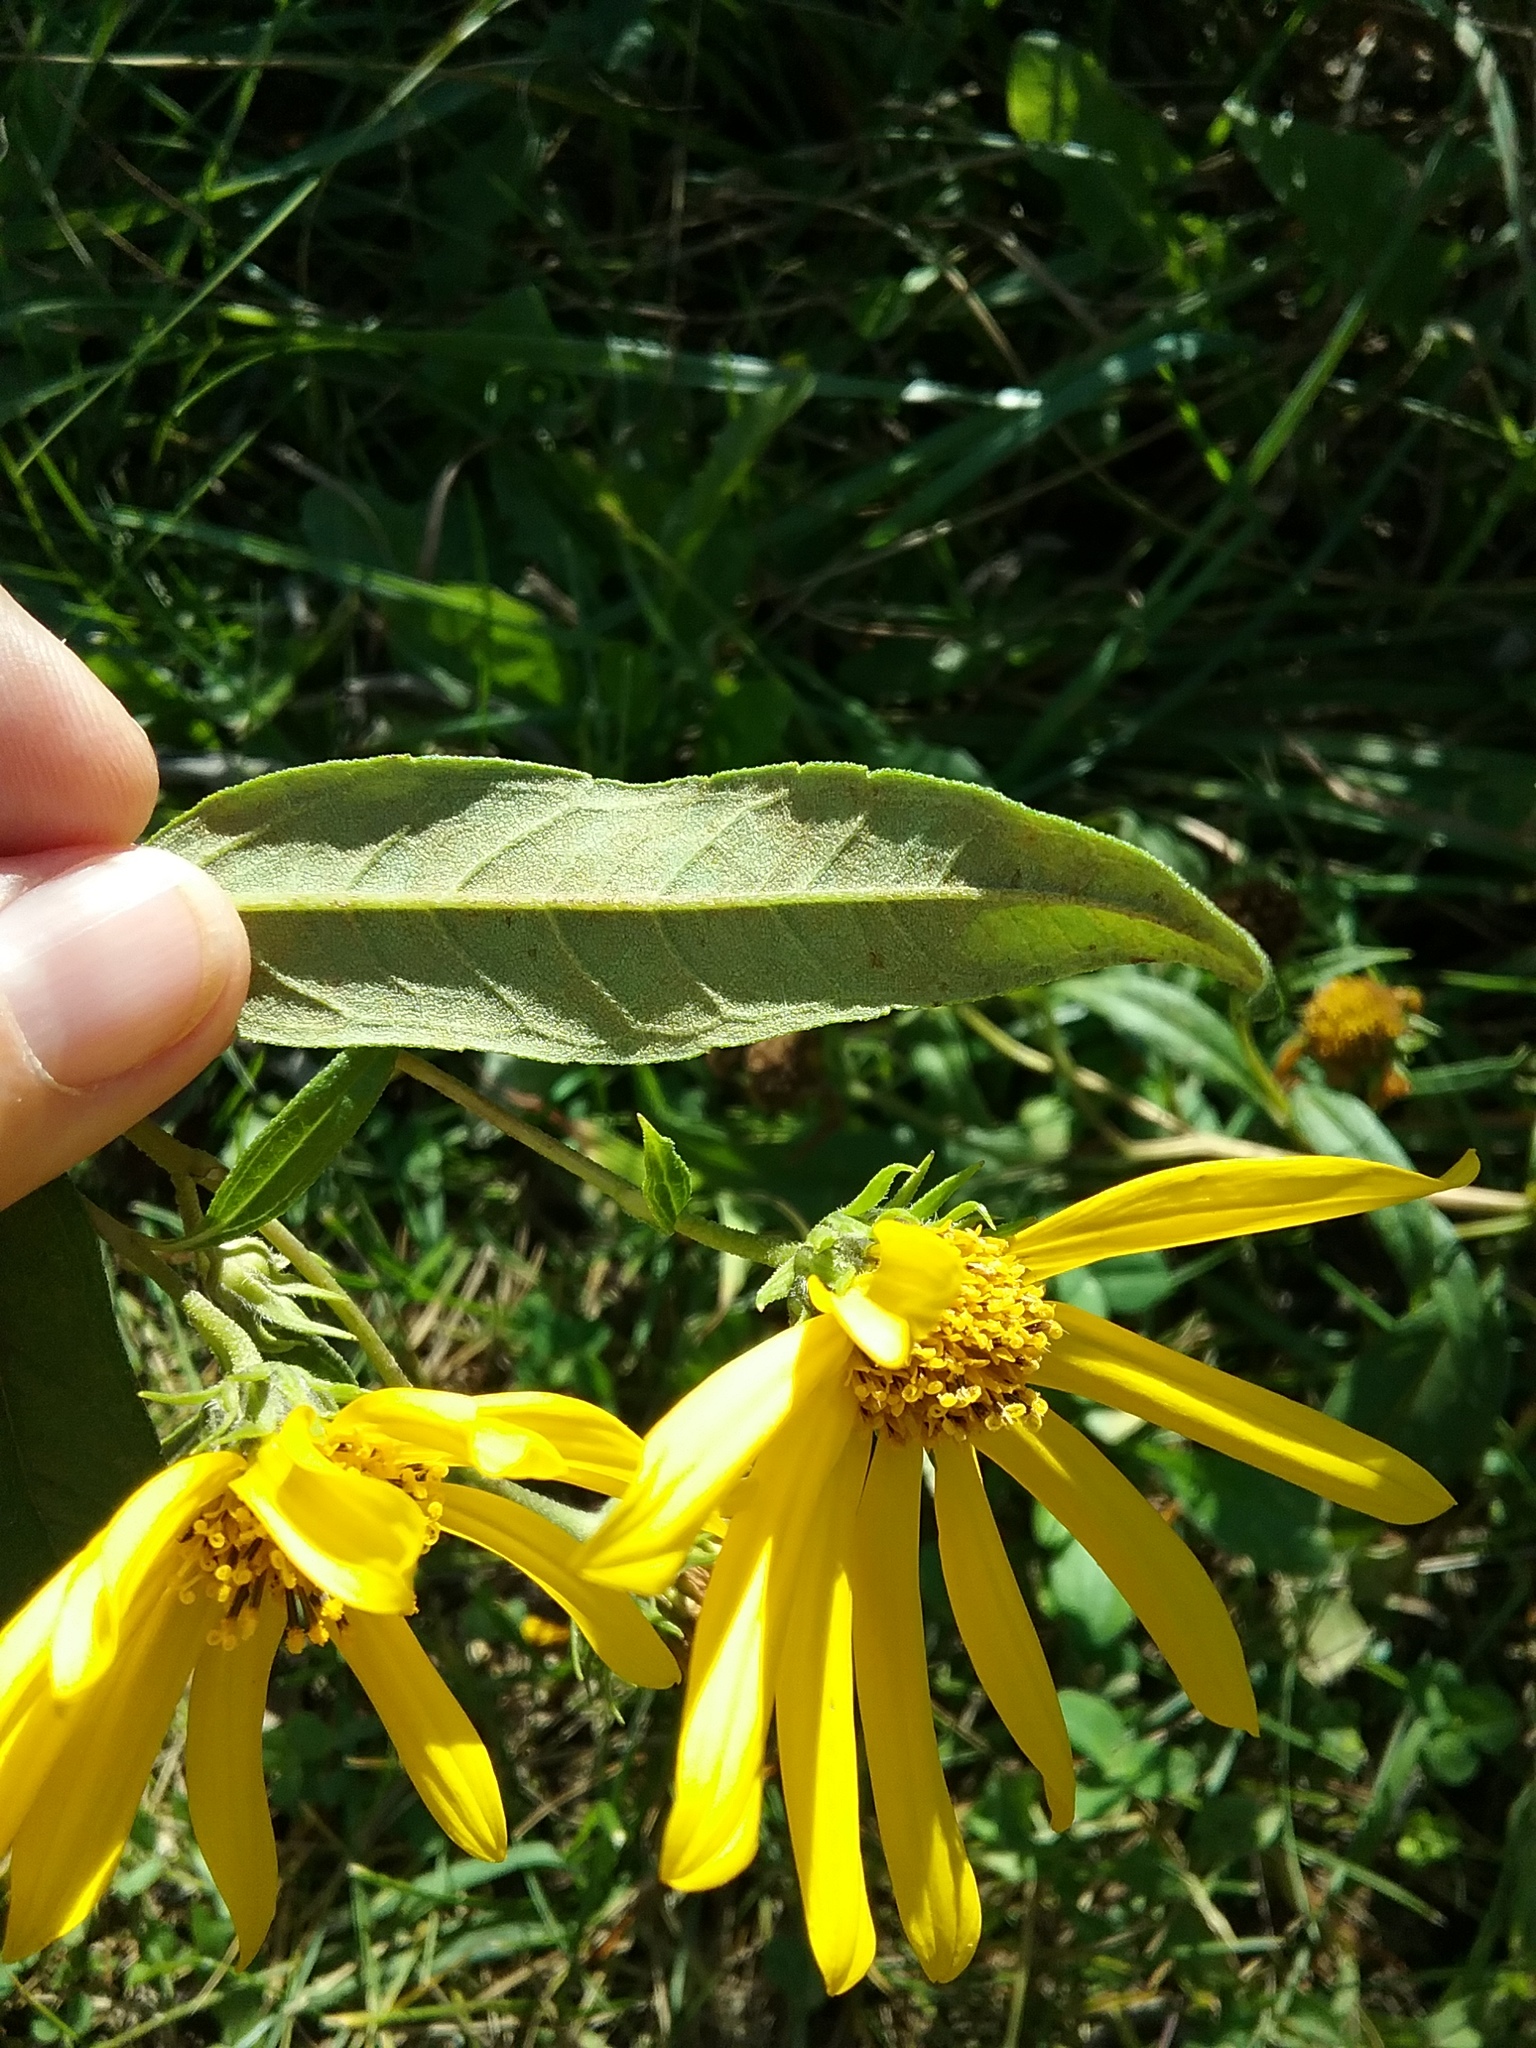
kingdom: Plantae
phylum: Tracheophyta
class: Magnoliopsida
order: Asterales
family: Asteraceae
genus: Helianthus
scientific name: Helianthus divaricatus
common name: Divergent sunflower
